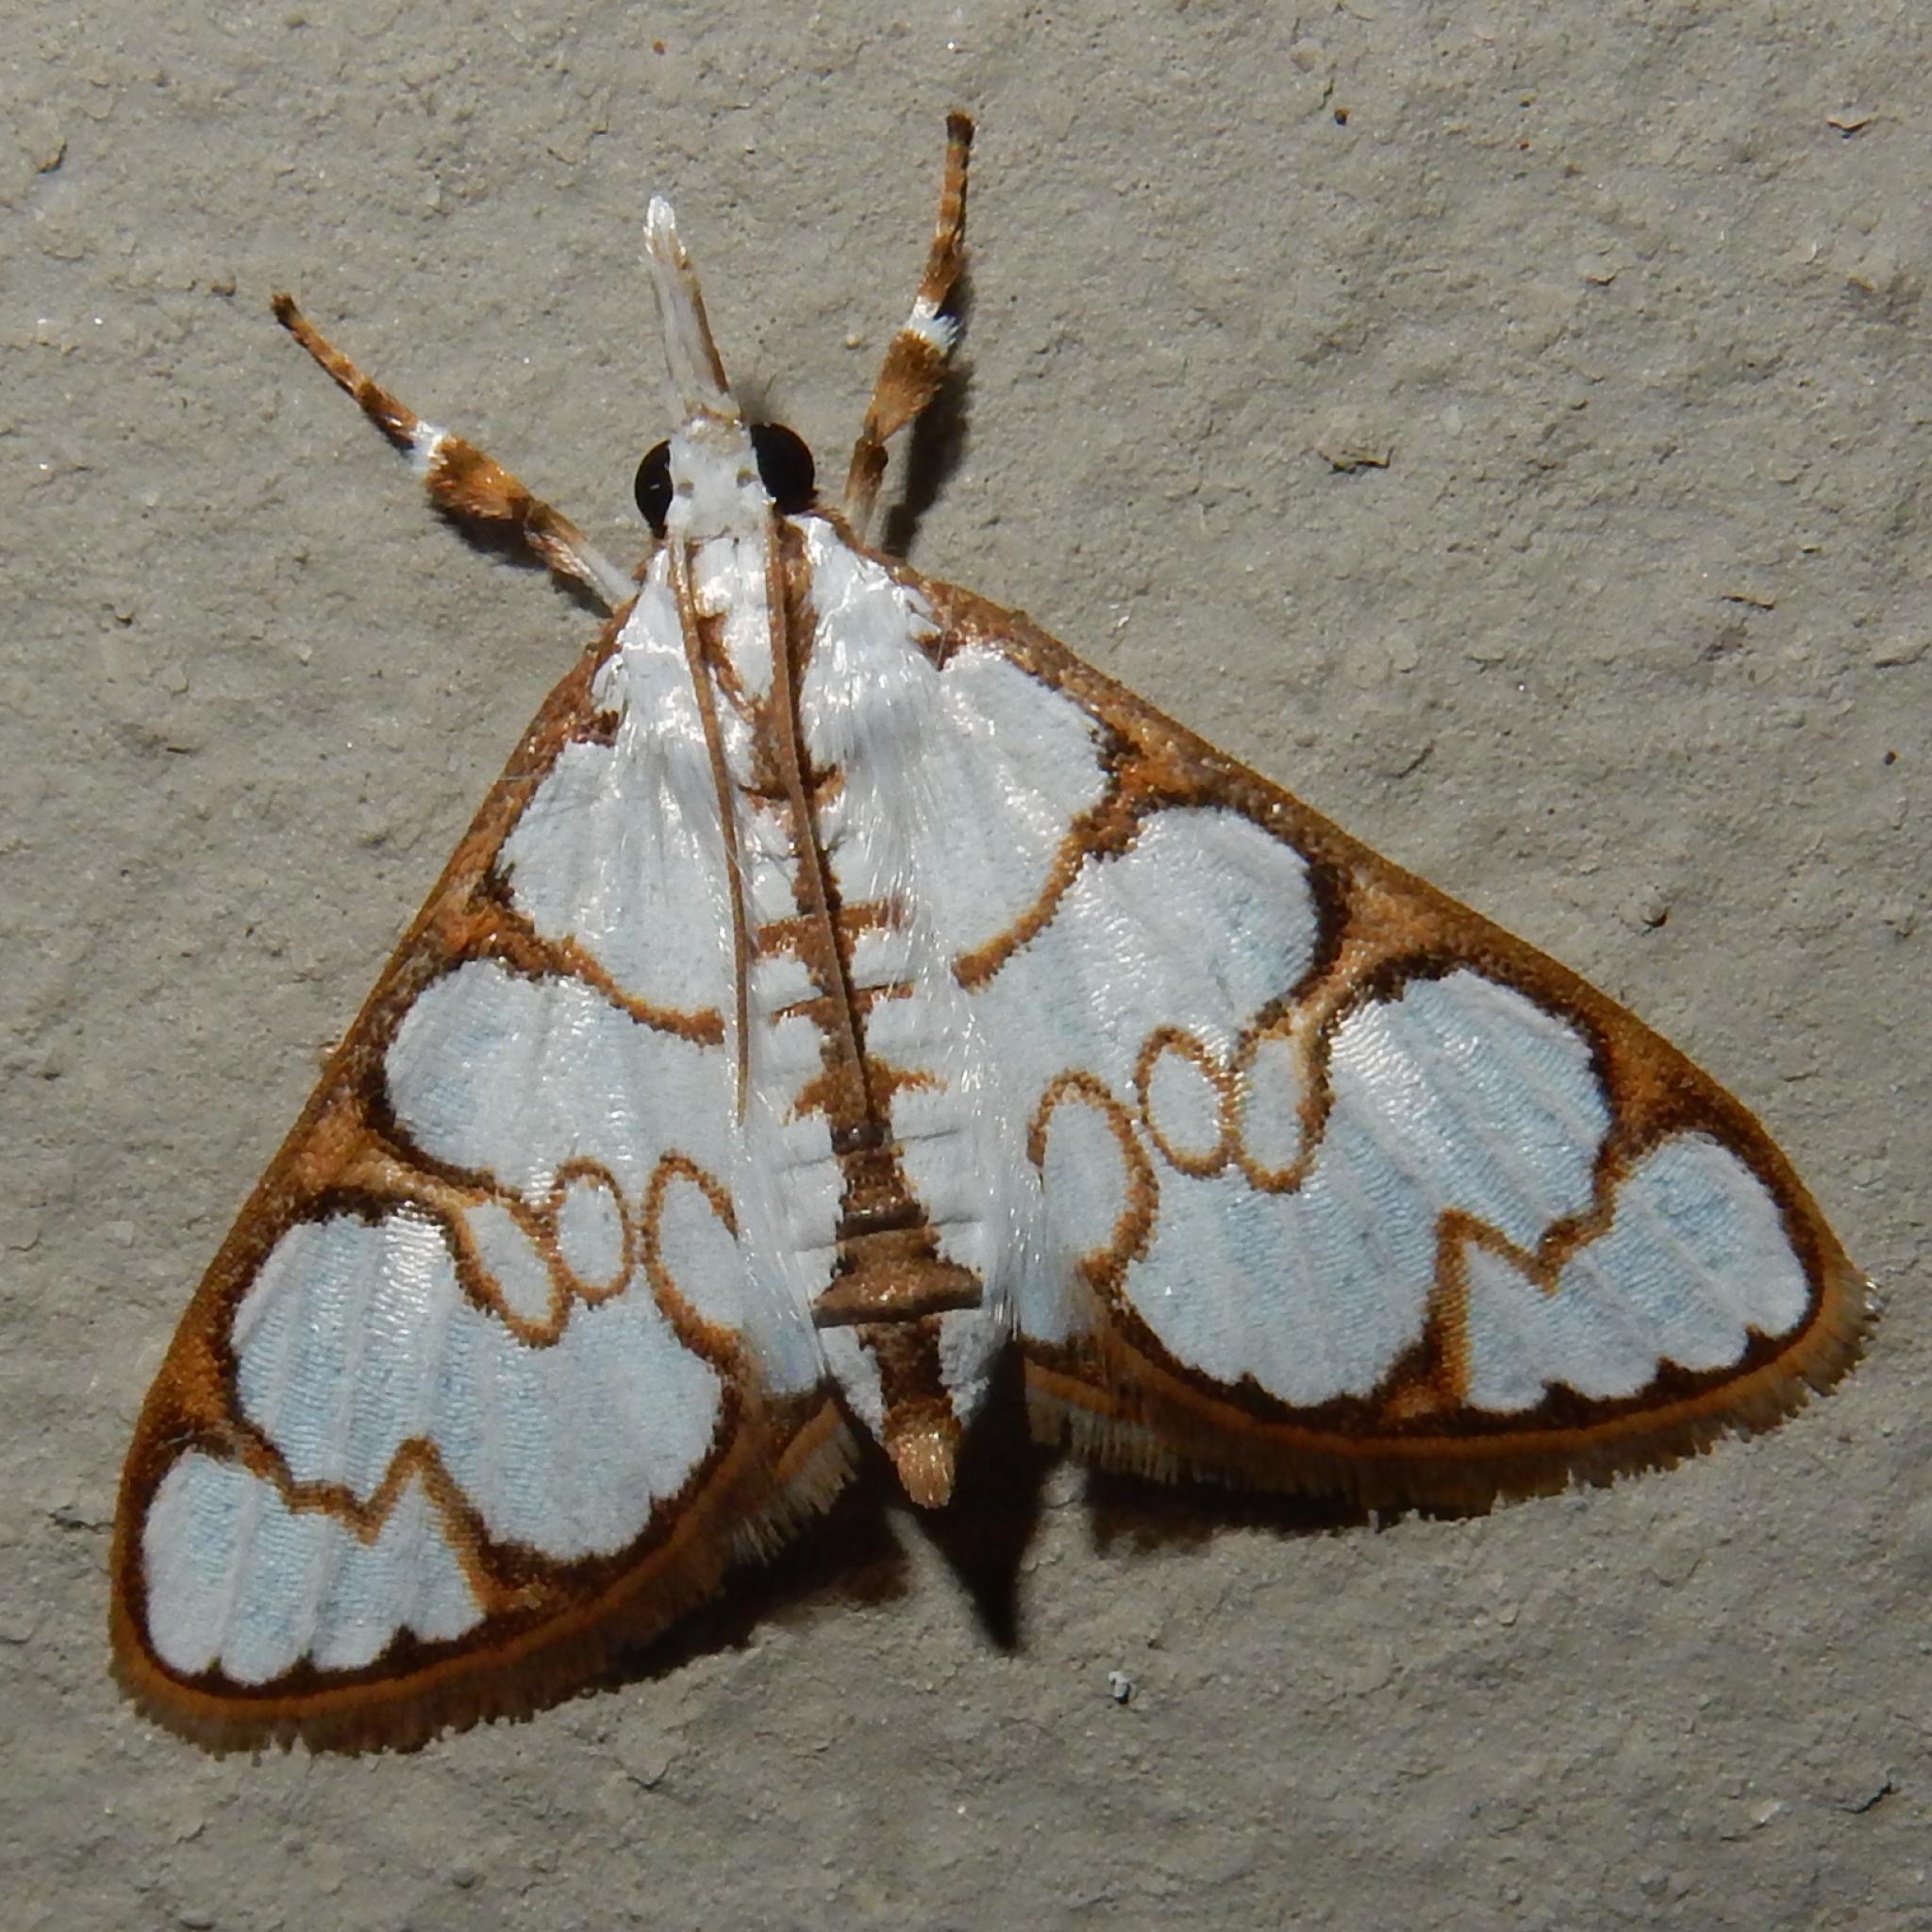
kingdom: Animalia
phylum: Arthropoda
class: Insecta
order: Lepidoptera
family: Crambidae
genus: Cirrhochrista
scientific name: Cirrhochrista grabczewskyi
